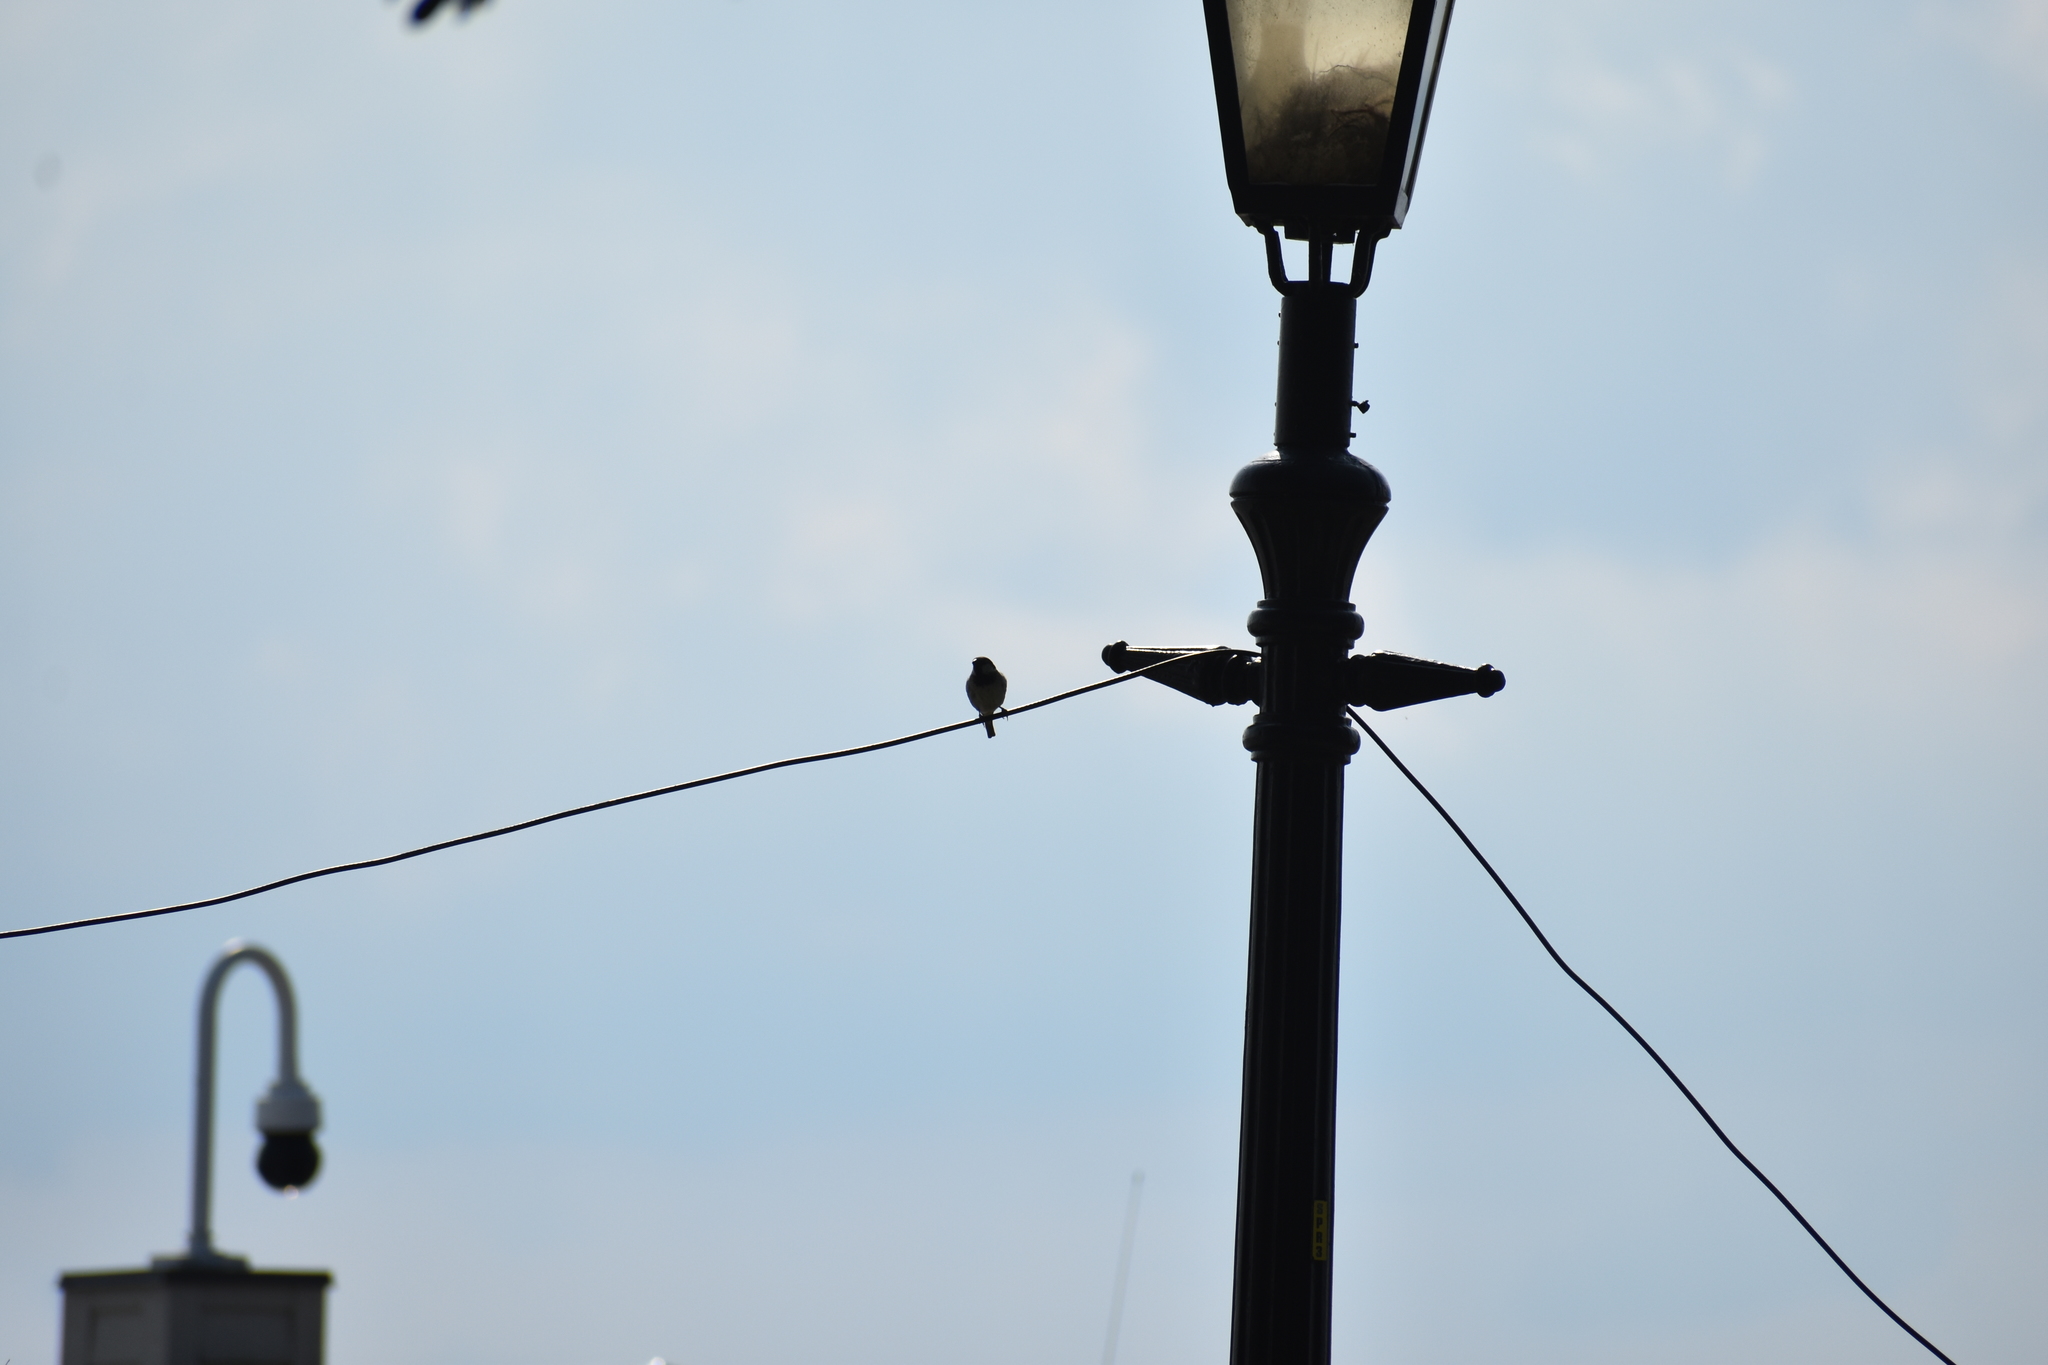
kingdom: Animalia
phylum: Chordata
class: Aves
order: Passeriformes
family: Passeridae
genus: Passer
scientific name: Passer domesticus
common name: House sparrow
